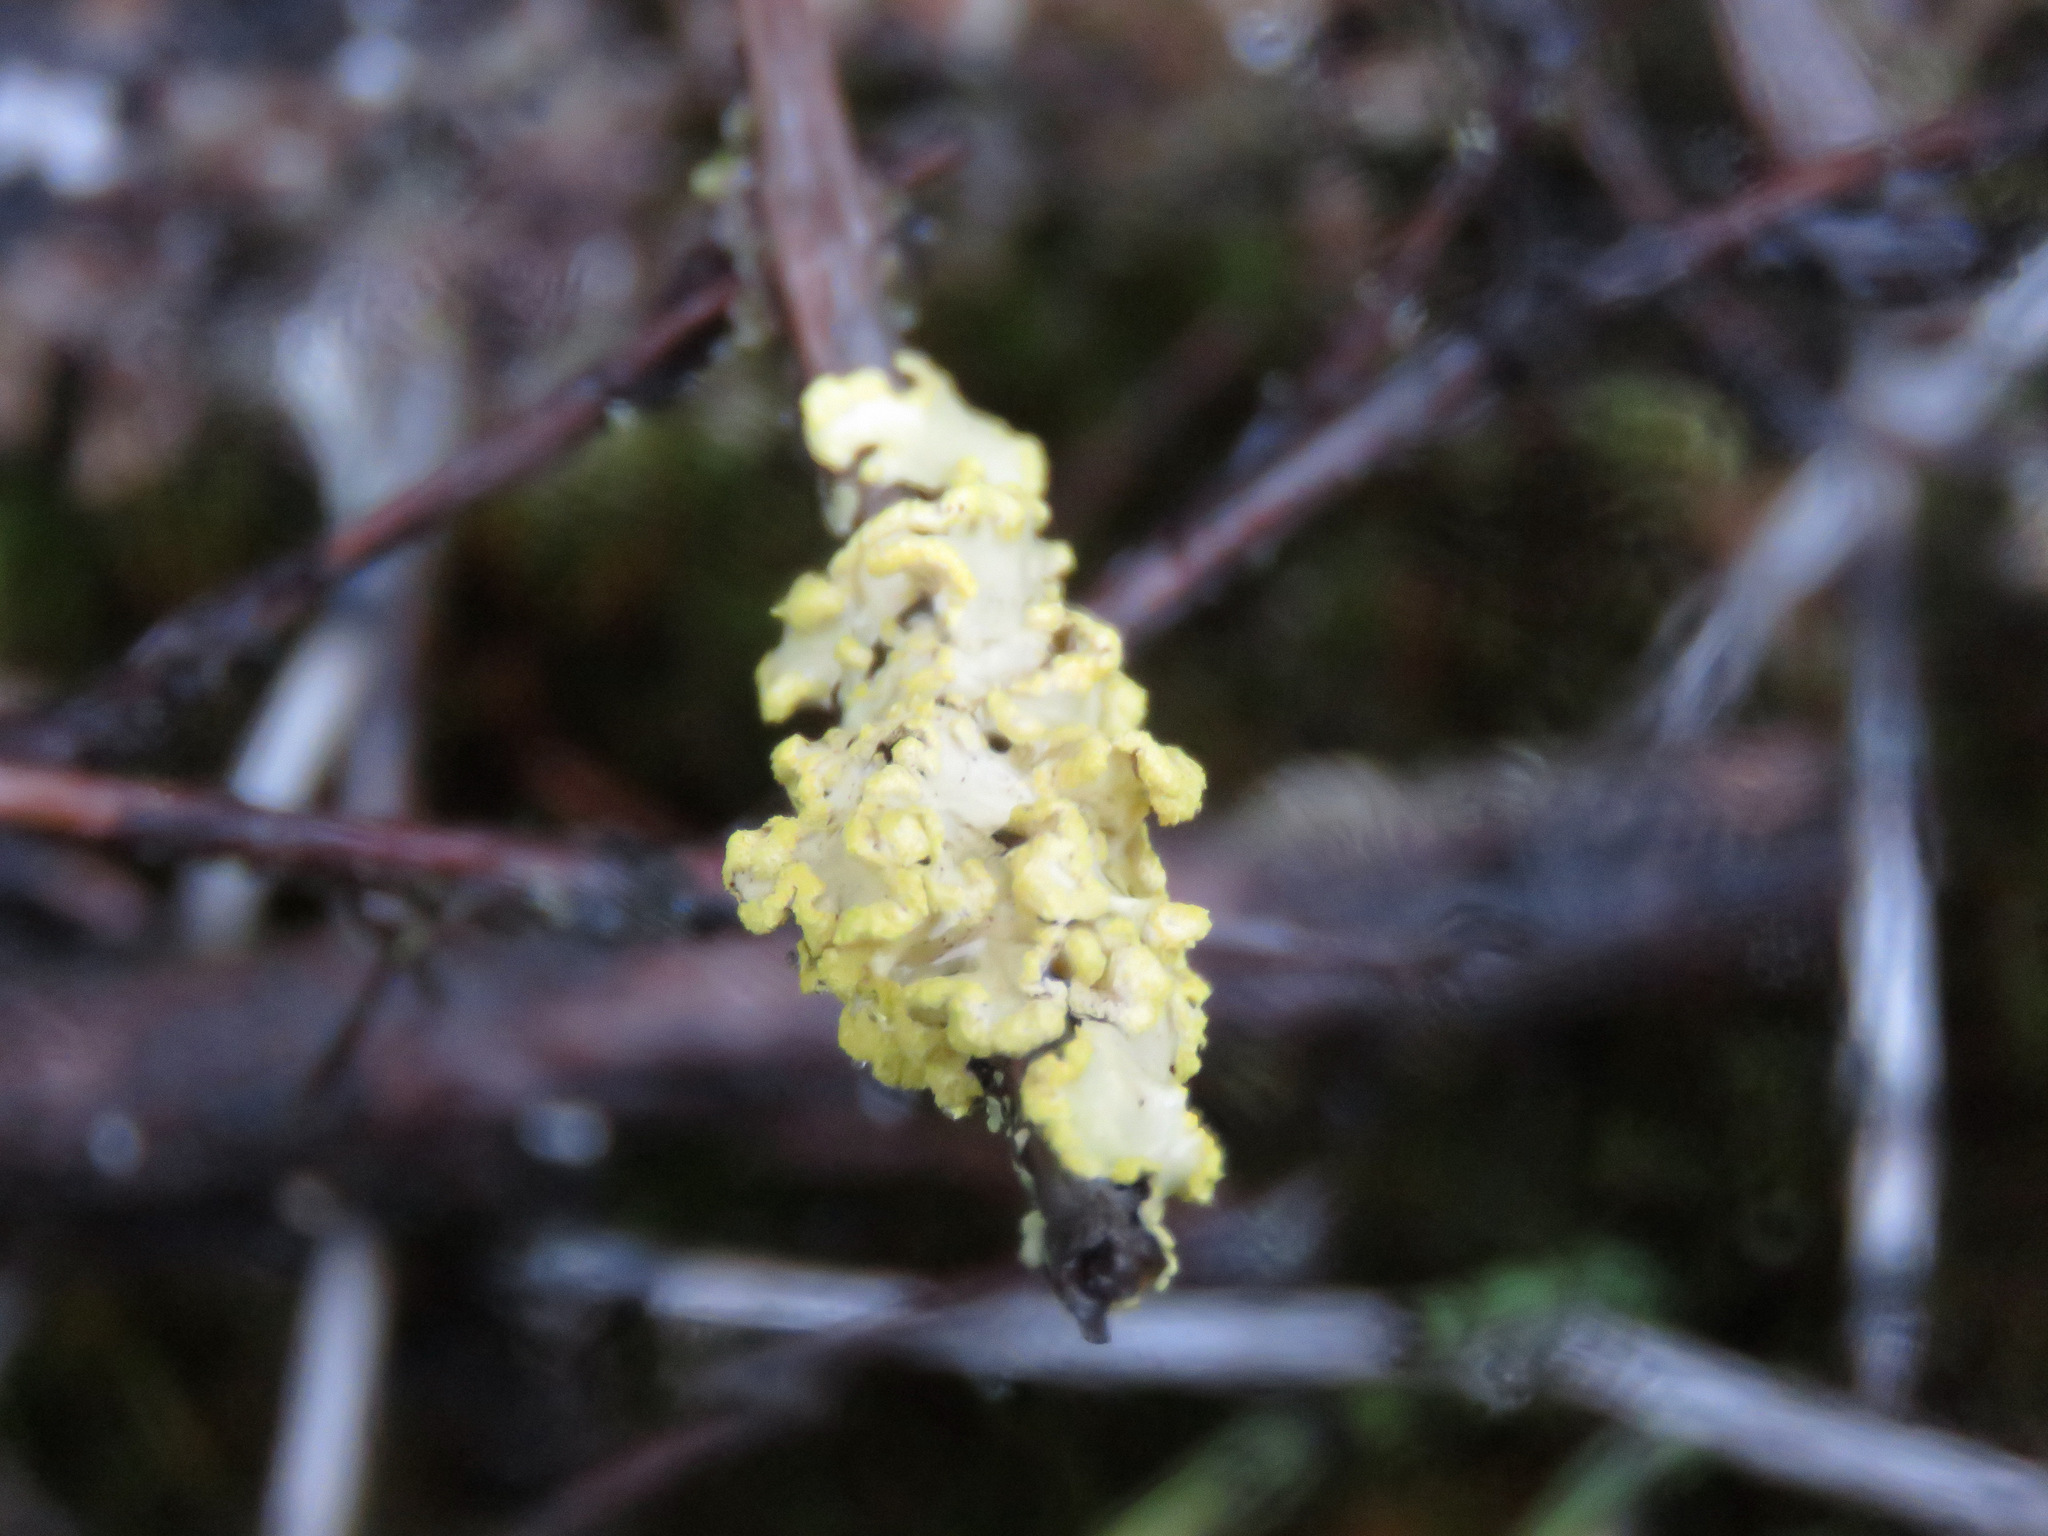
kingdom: Fungi
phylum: Ascomycota
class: Lecanoromycetes
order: Lecanorales
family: Parmeliaceae
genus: Vulpicida
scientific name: Vulpicida pinastri
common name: Powdered sunshine lichen
